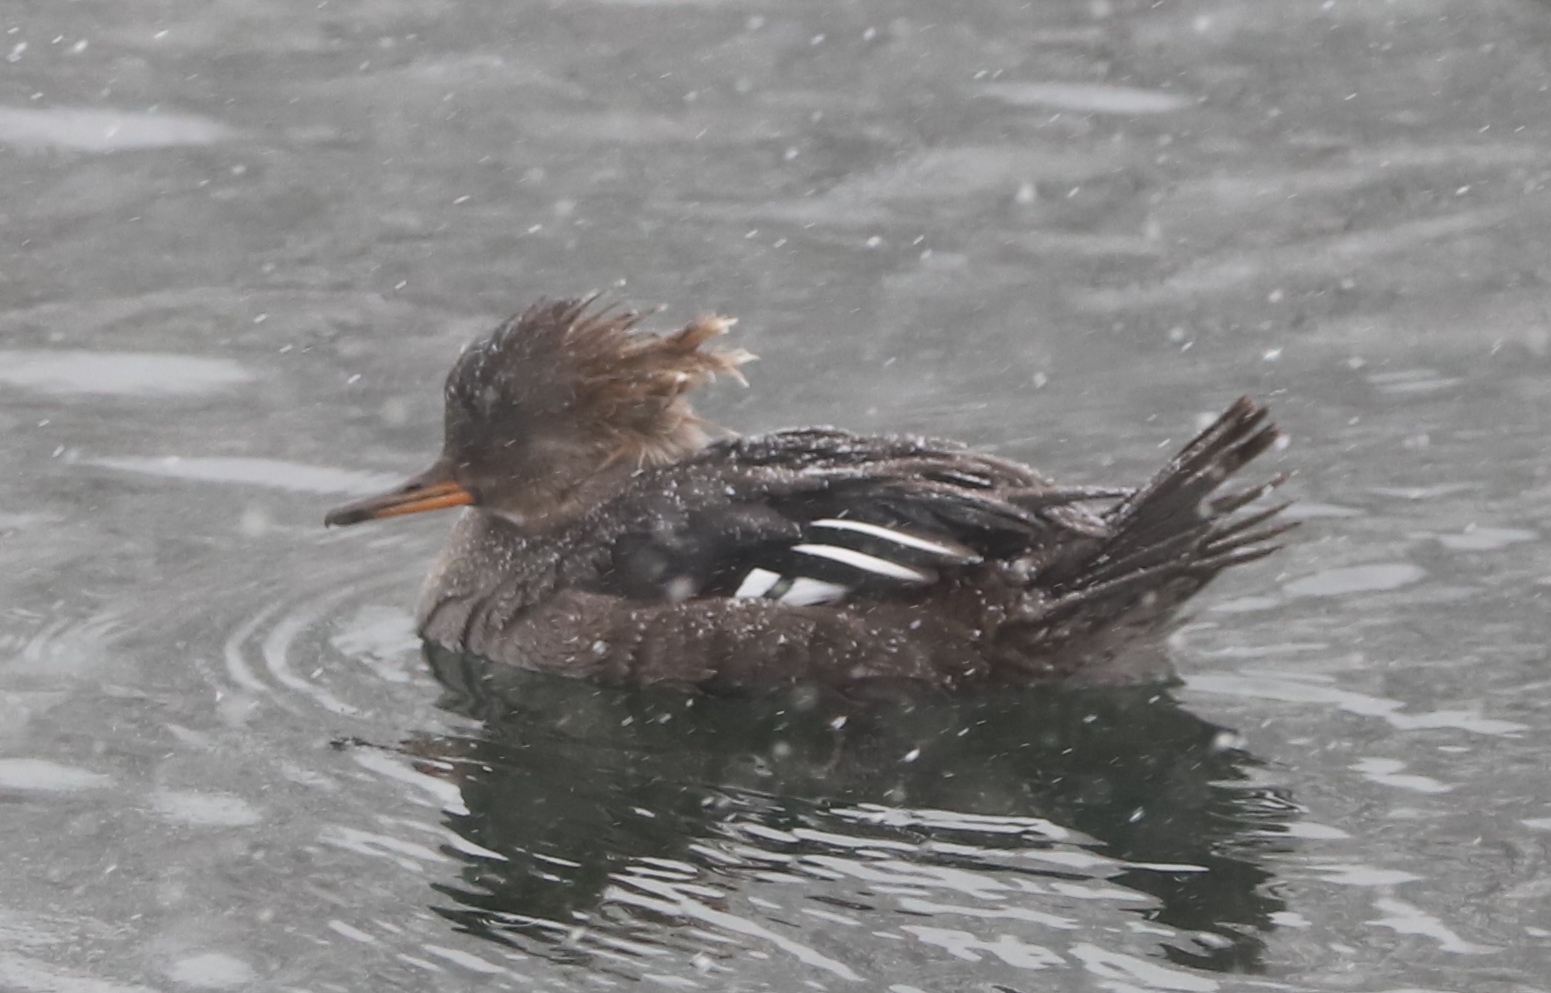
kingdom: Animalia
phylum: Chordata
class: Aves
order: Anseriformes
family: Anatidae
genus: Lophodytes
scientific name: Lophodytes cucullatus
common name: Hooded merganser
